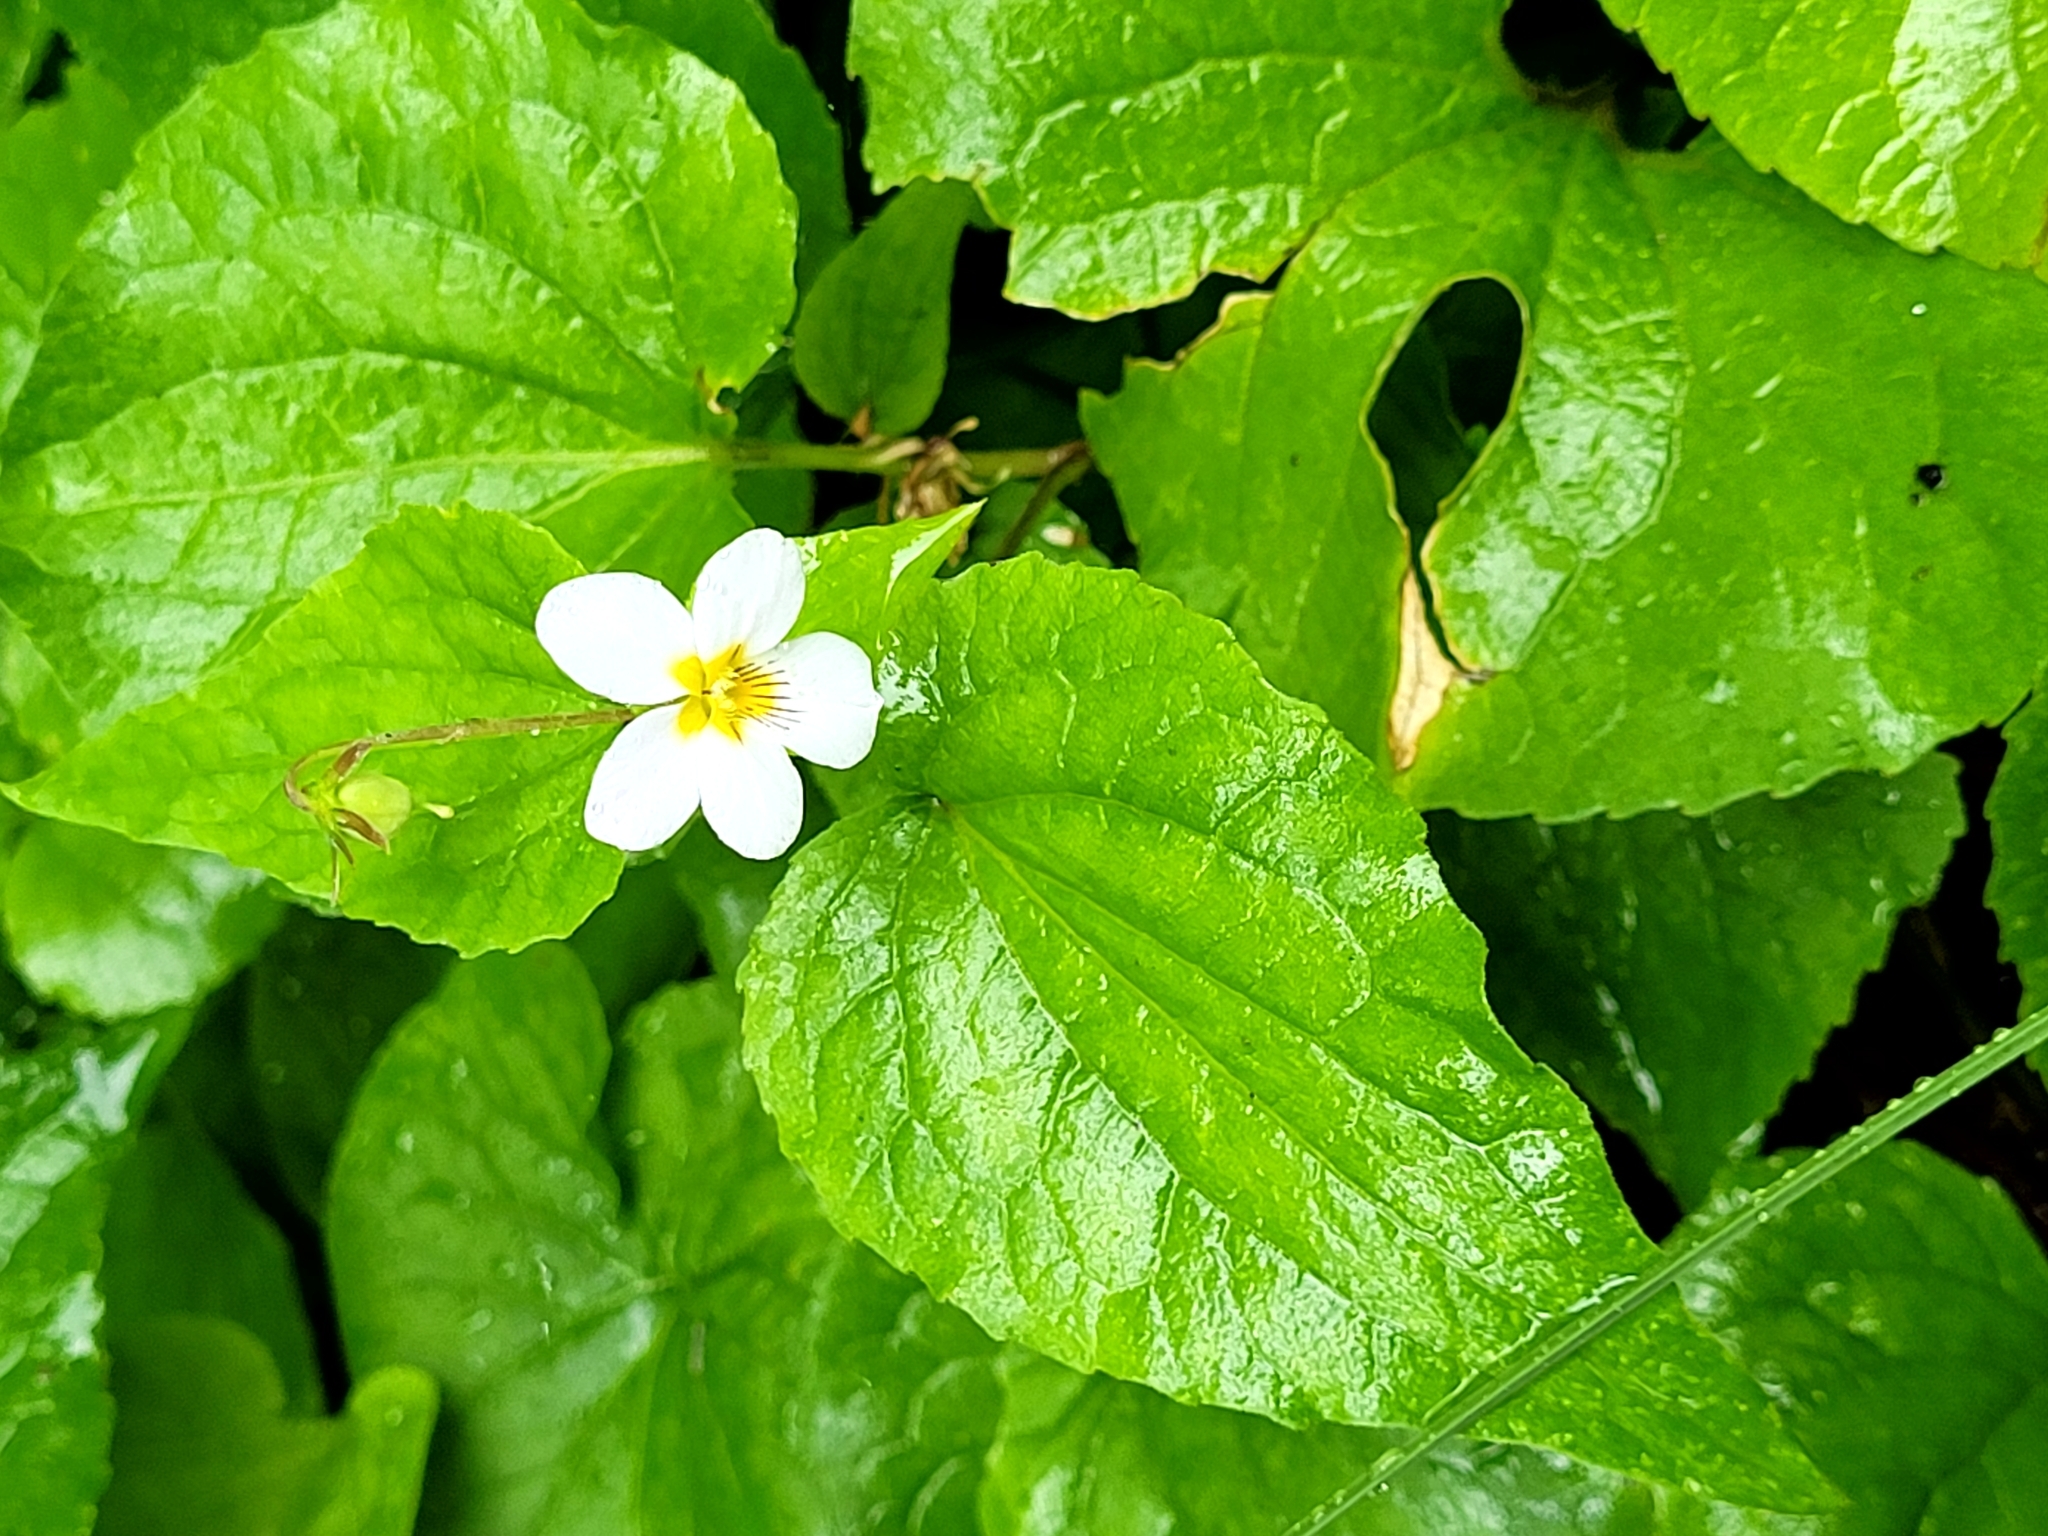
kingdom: Plantae
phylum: Tracheophyta
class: Magnoliopsida
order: Malpighiales
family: Violaceae
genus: Viola
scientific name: Viola canadensis
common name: Canada violet
